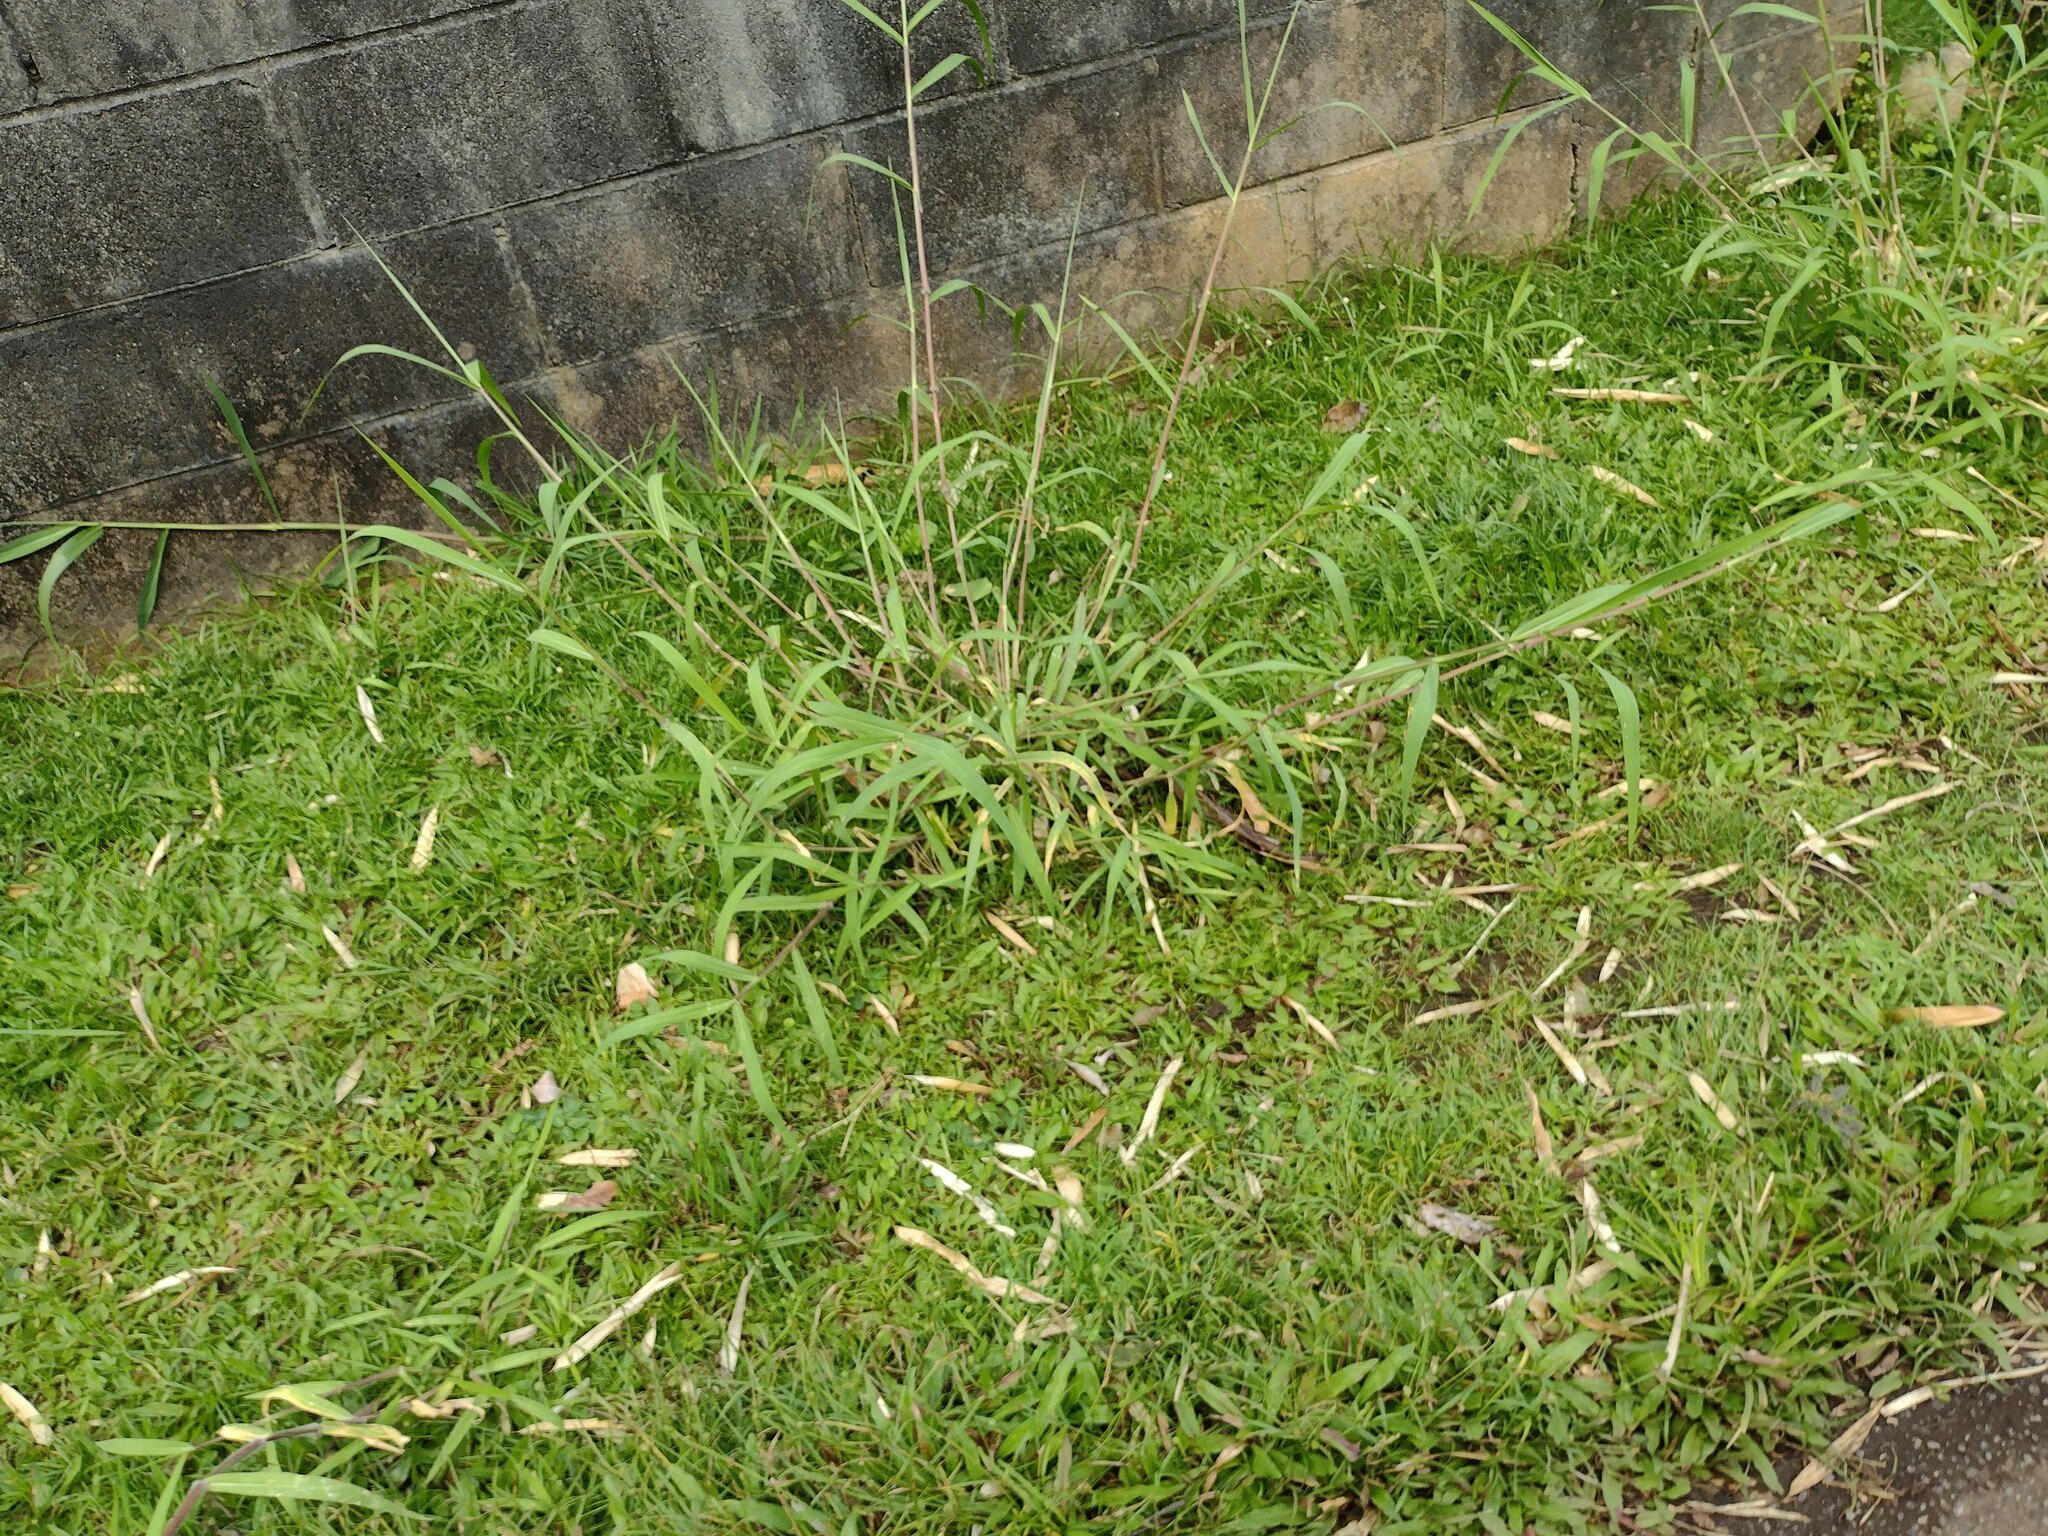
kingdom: Plantae
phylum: Tracheophyta
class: Liliopsida
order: Poales
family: Poaceae
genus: Urochloa
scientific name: Urochloa mutica
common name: Para grass
